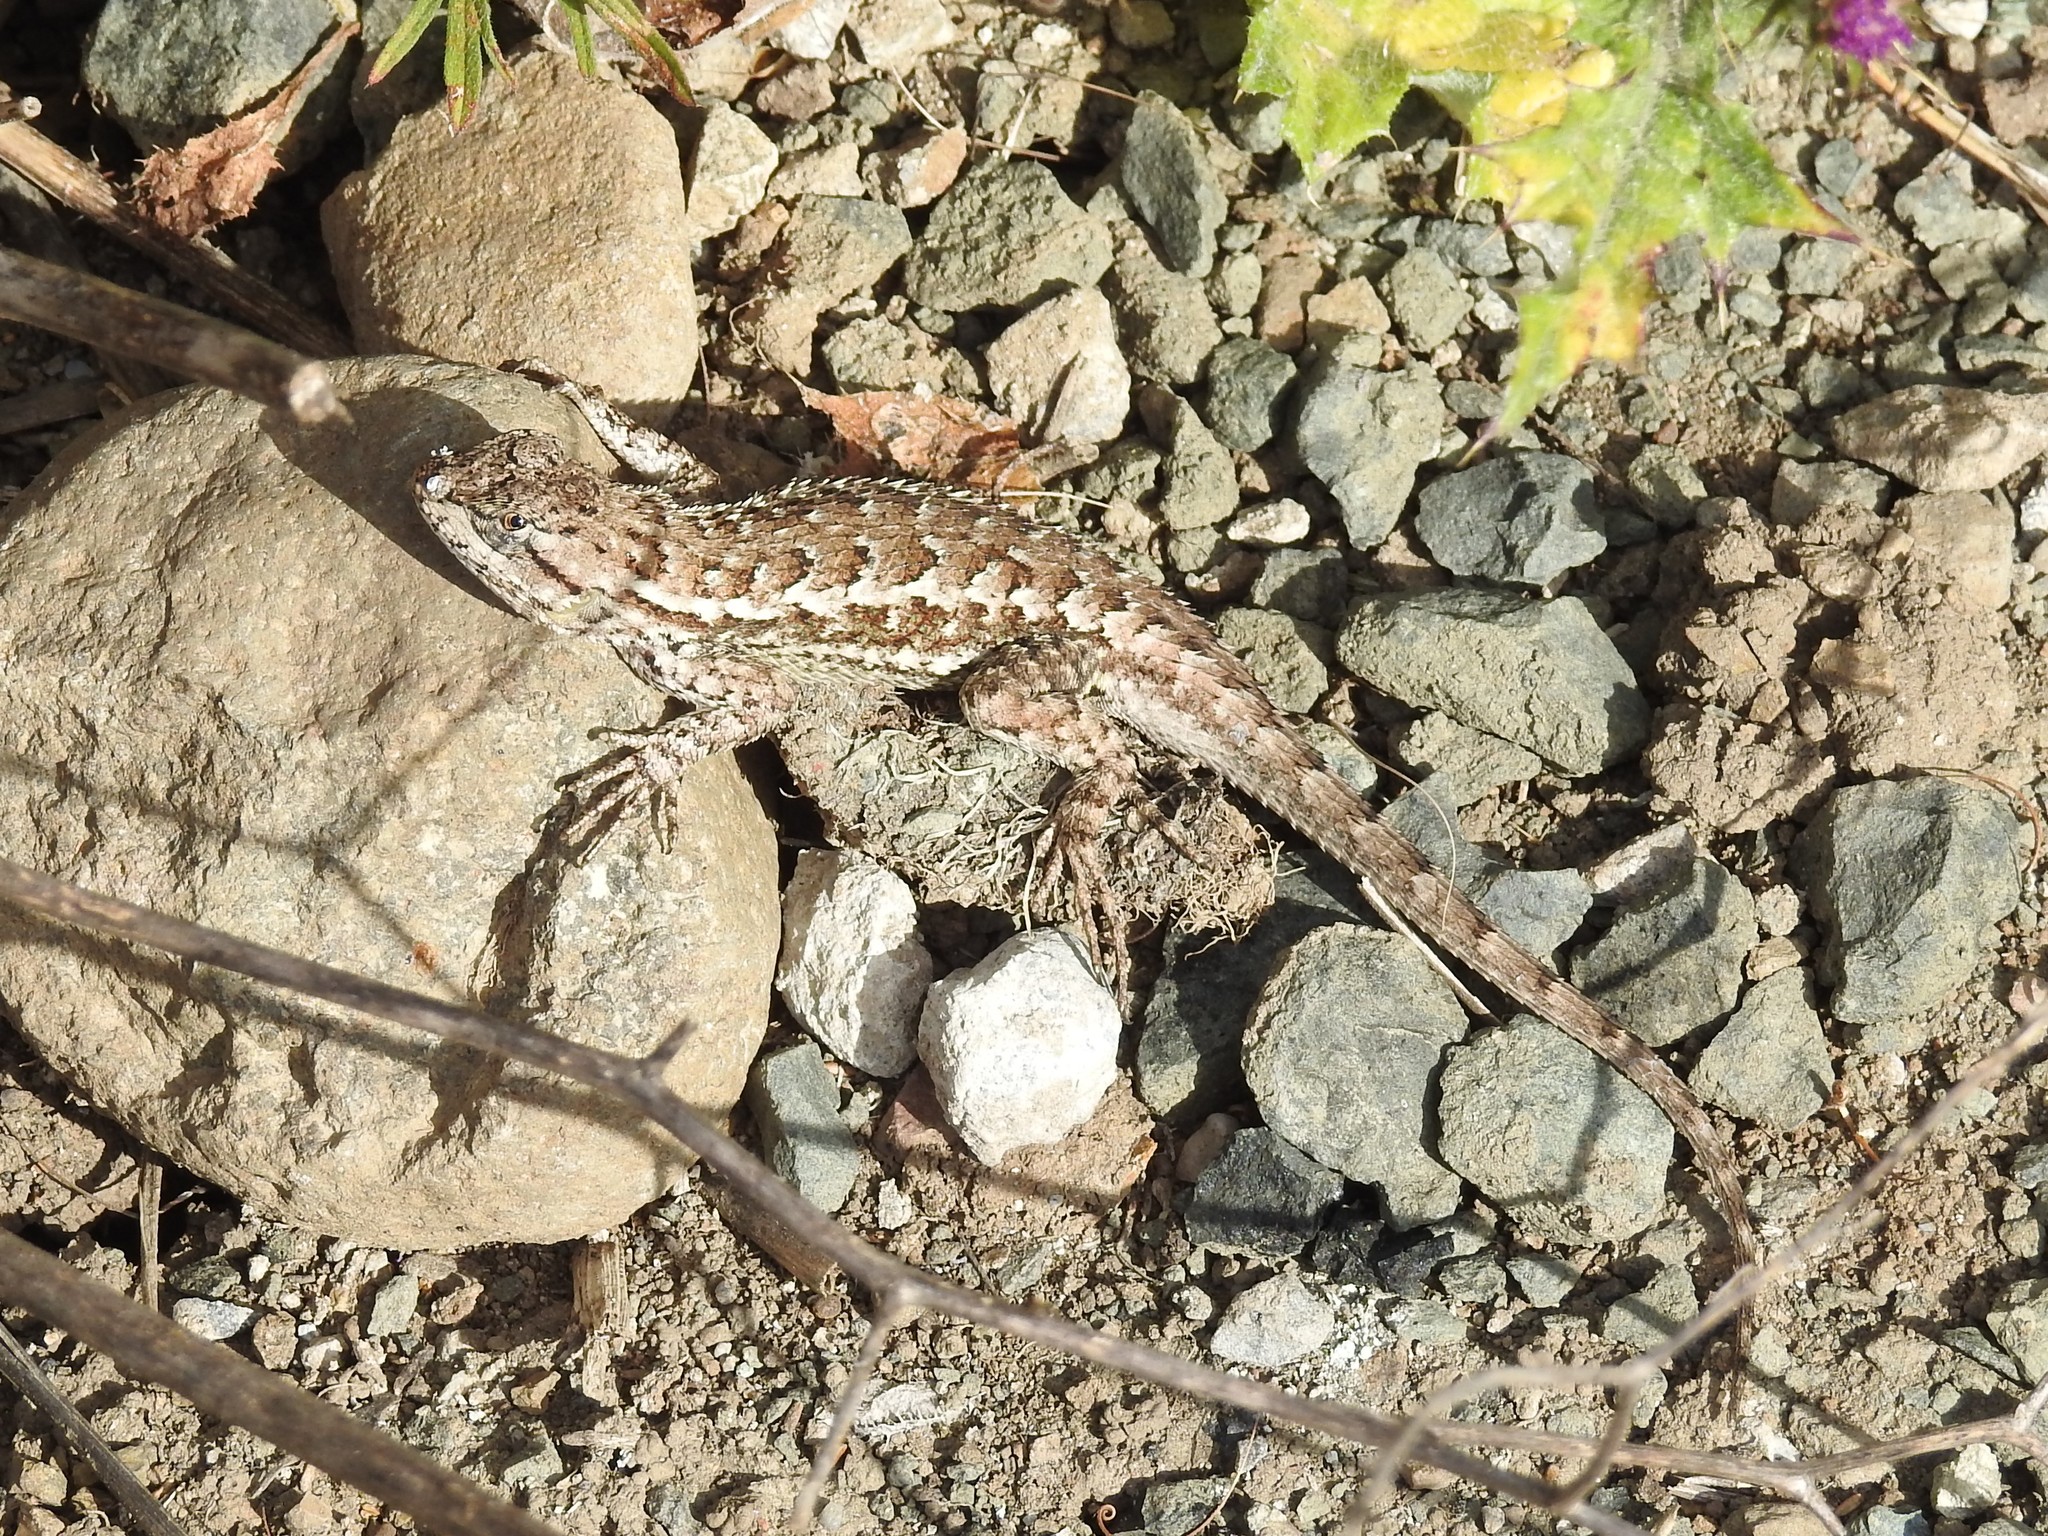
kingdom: Animalia
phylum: Chordata
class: Squamata
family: Phrynosomatidae
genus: Sceloporus
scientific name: Sceloporus occidentalis
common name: Western fence lizard
